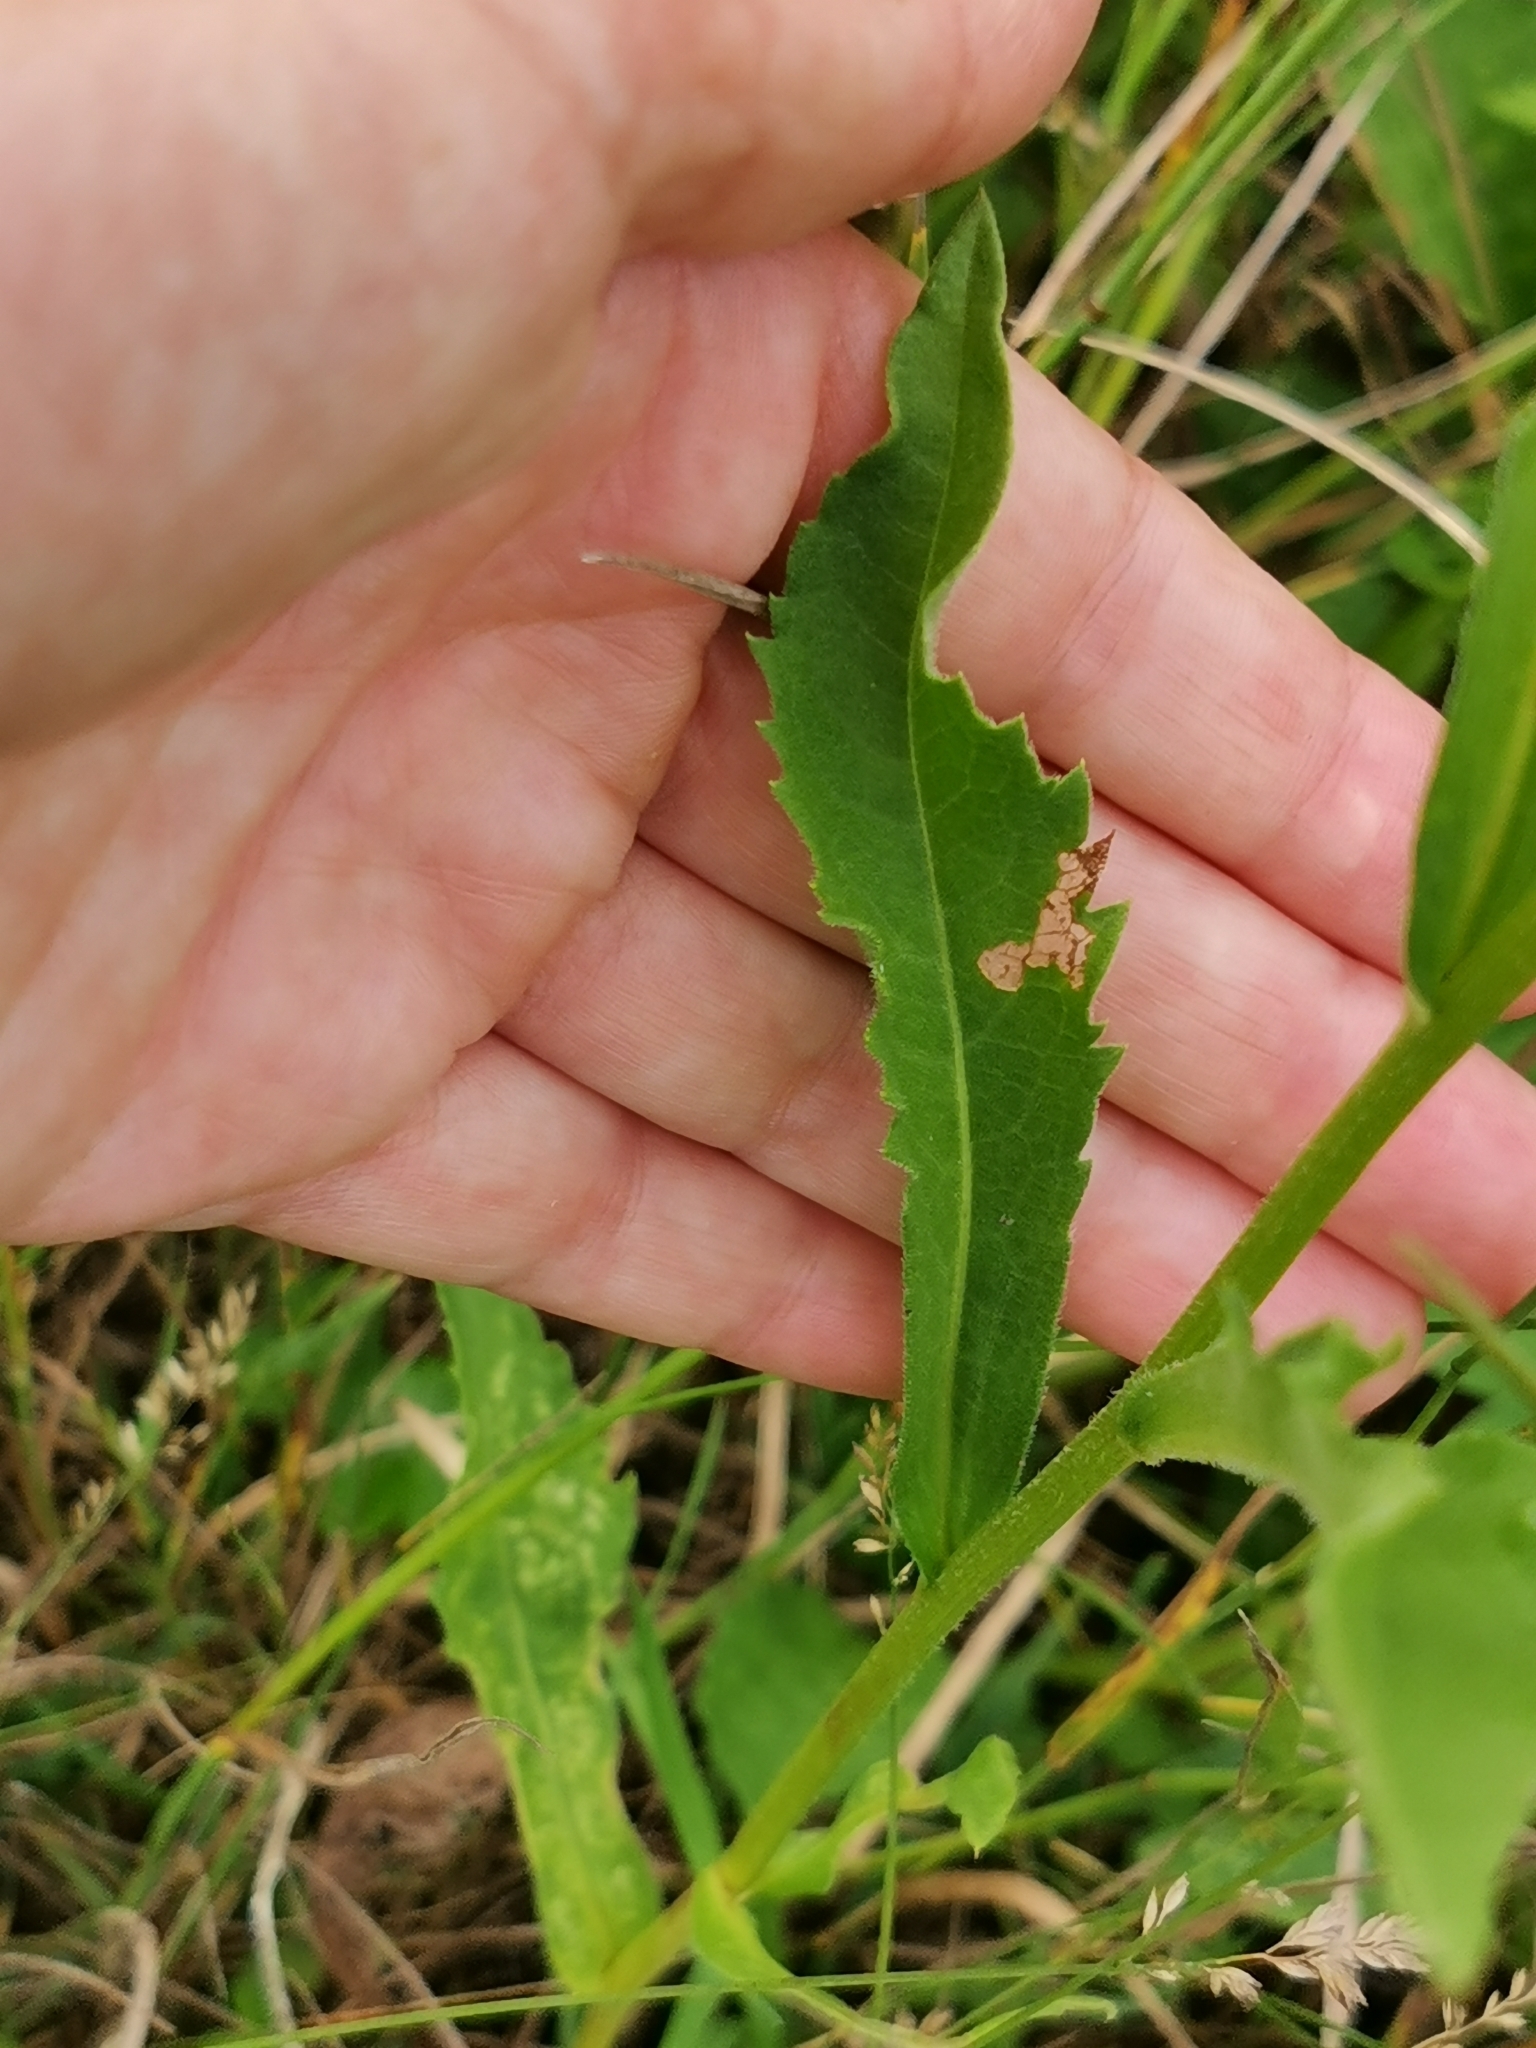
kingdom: Plantae
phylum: Tracheophyta
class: Magnoliopsida
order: Asterales
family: Asteraceae
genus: Aster
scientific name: Aster tataricus
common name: Tatarian aster
